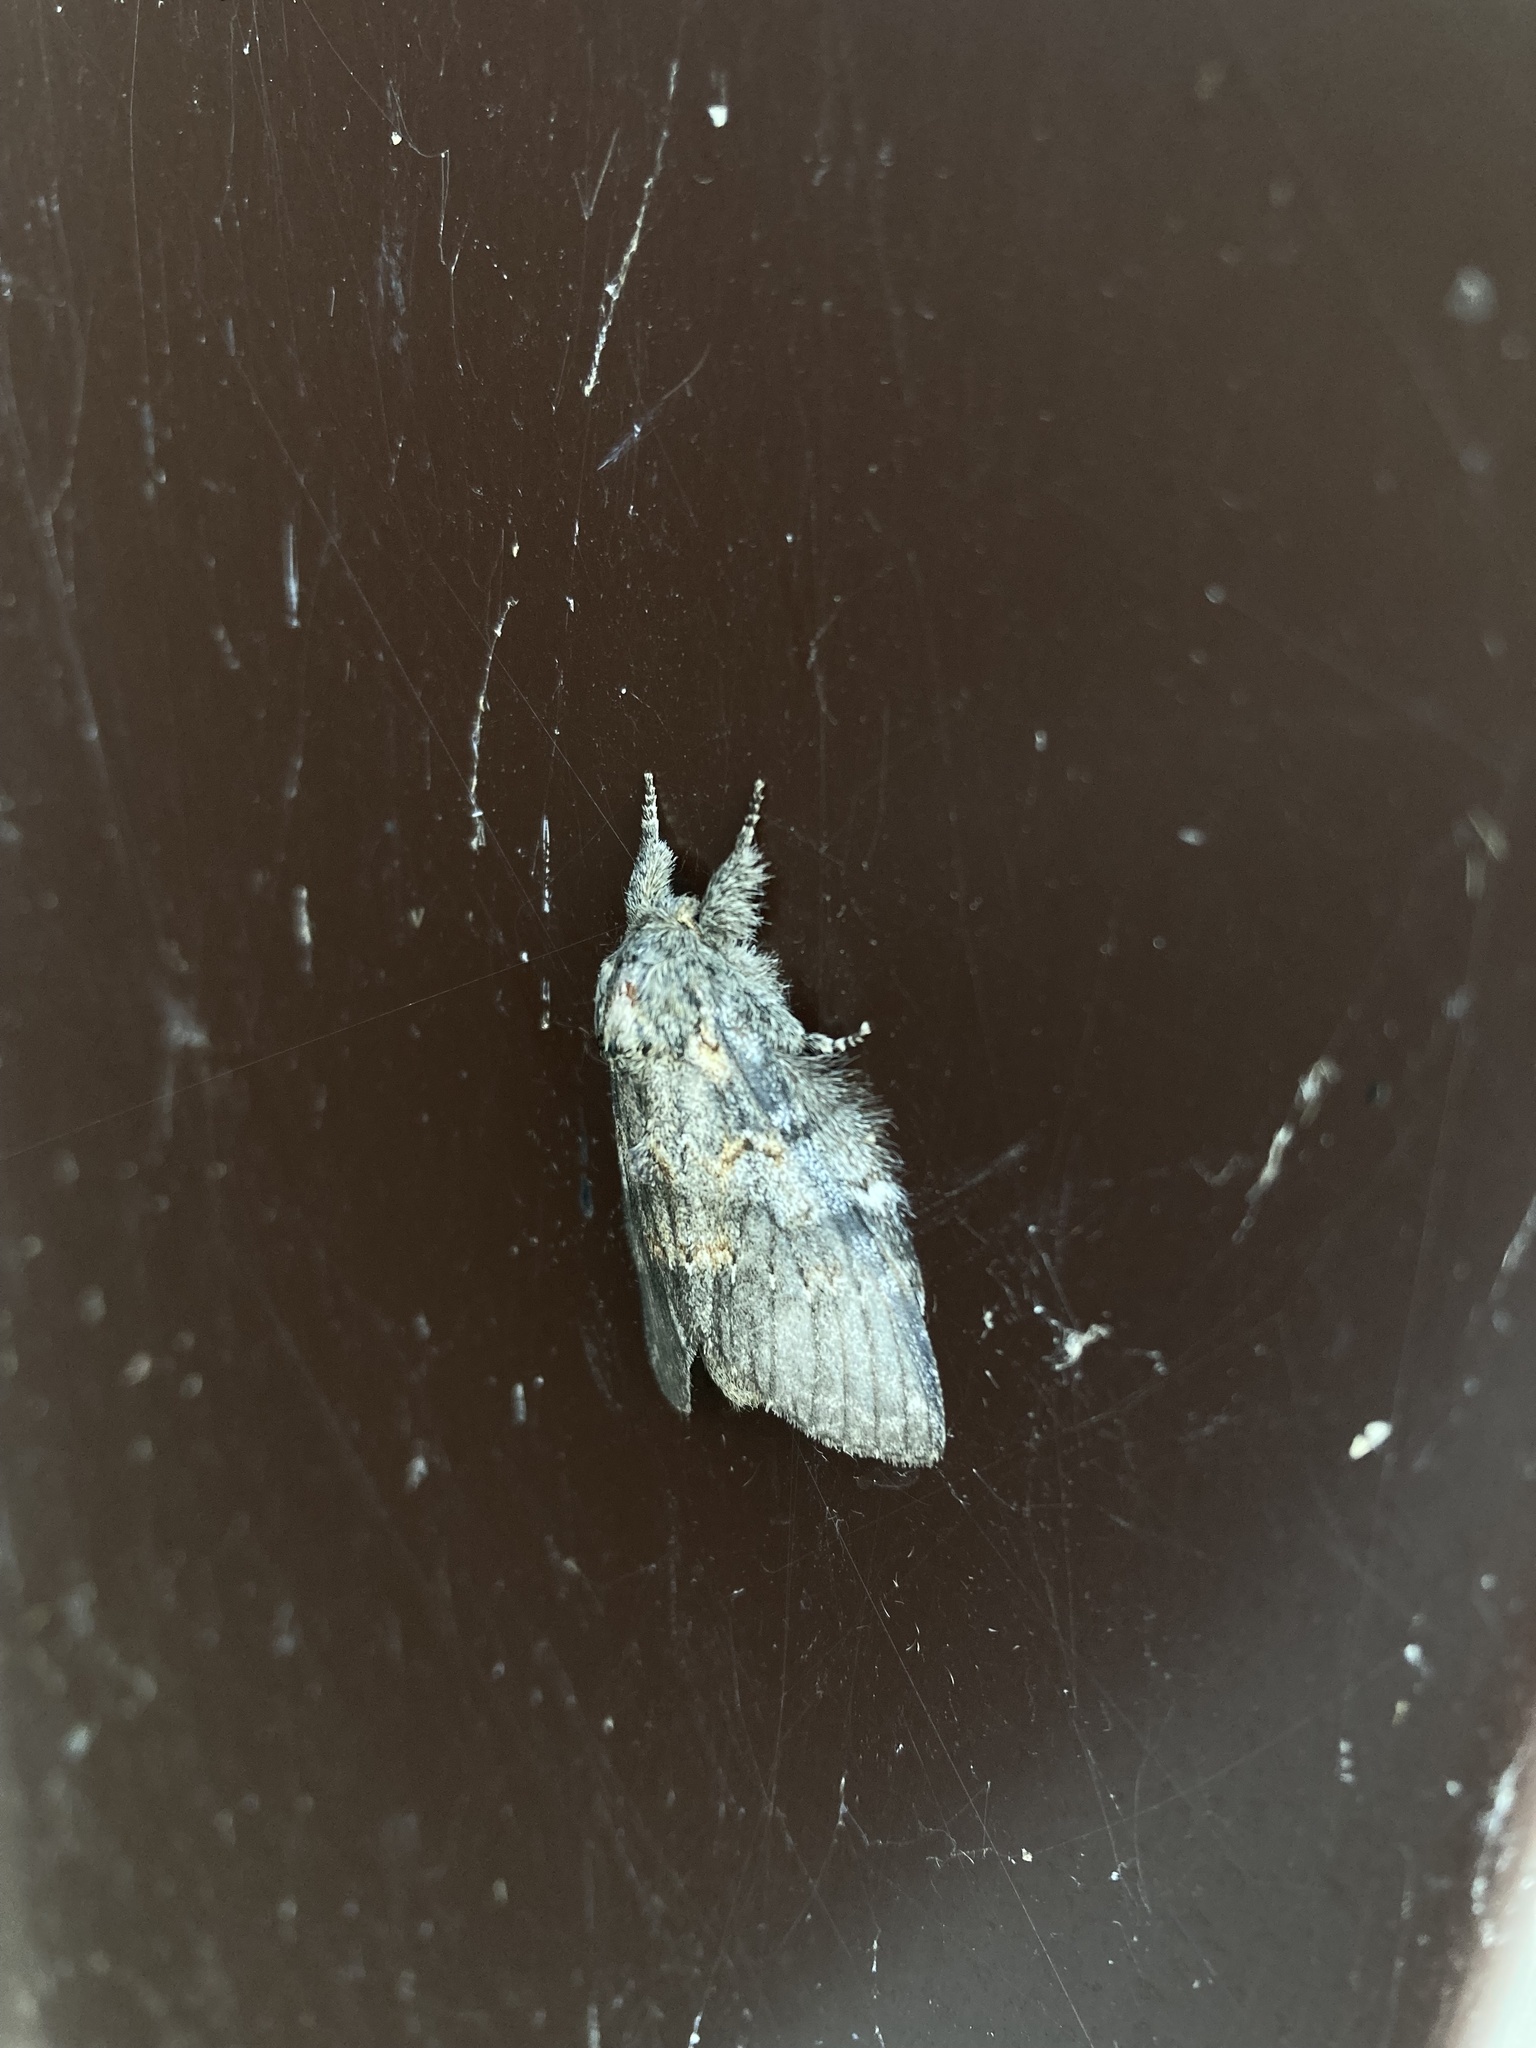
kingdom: Animalia
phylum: Arthropoda
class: Insecta
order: Lepidoptera
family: Notodontidae
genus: Peridea
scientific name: Peridea angulosa
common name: Angulose prominent
